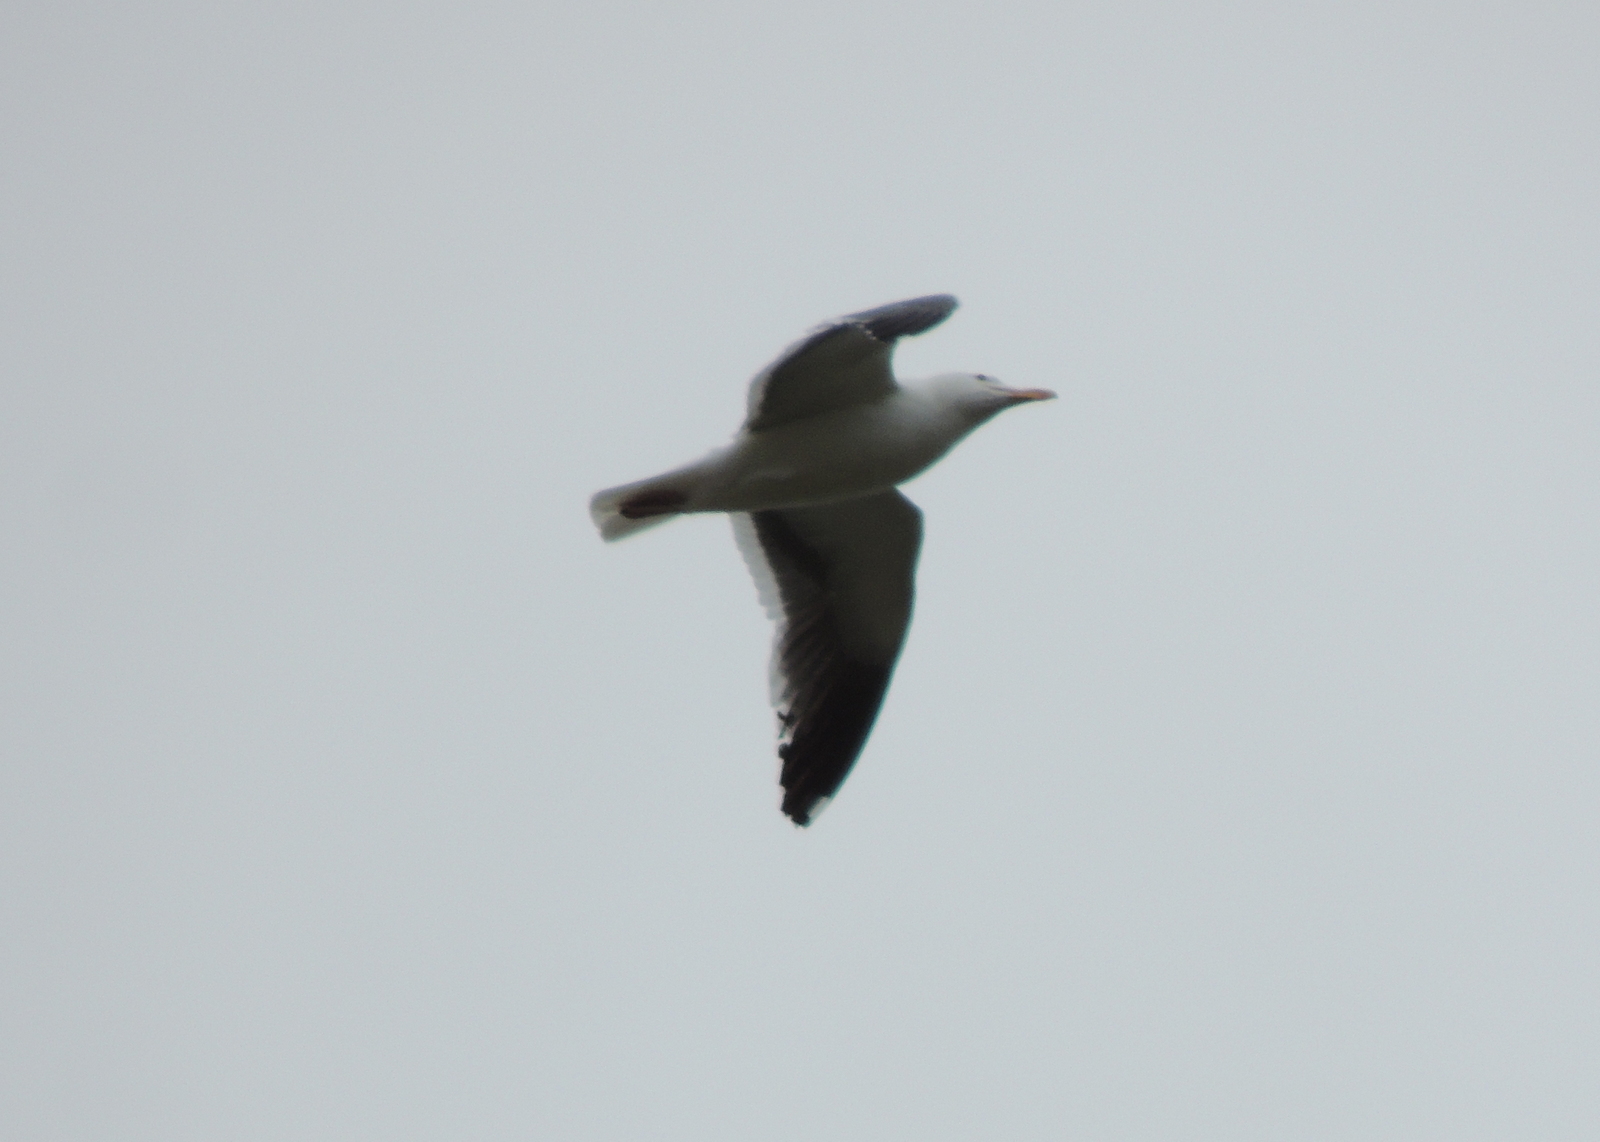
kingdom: Animalia
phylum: Chordata
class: Aves
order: Charadriiformes
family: Laridae
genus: Larus
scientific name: Larus occidentalis
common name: Western gull
